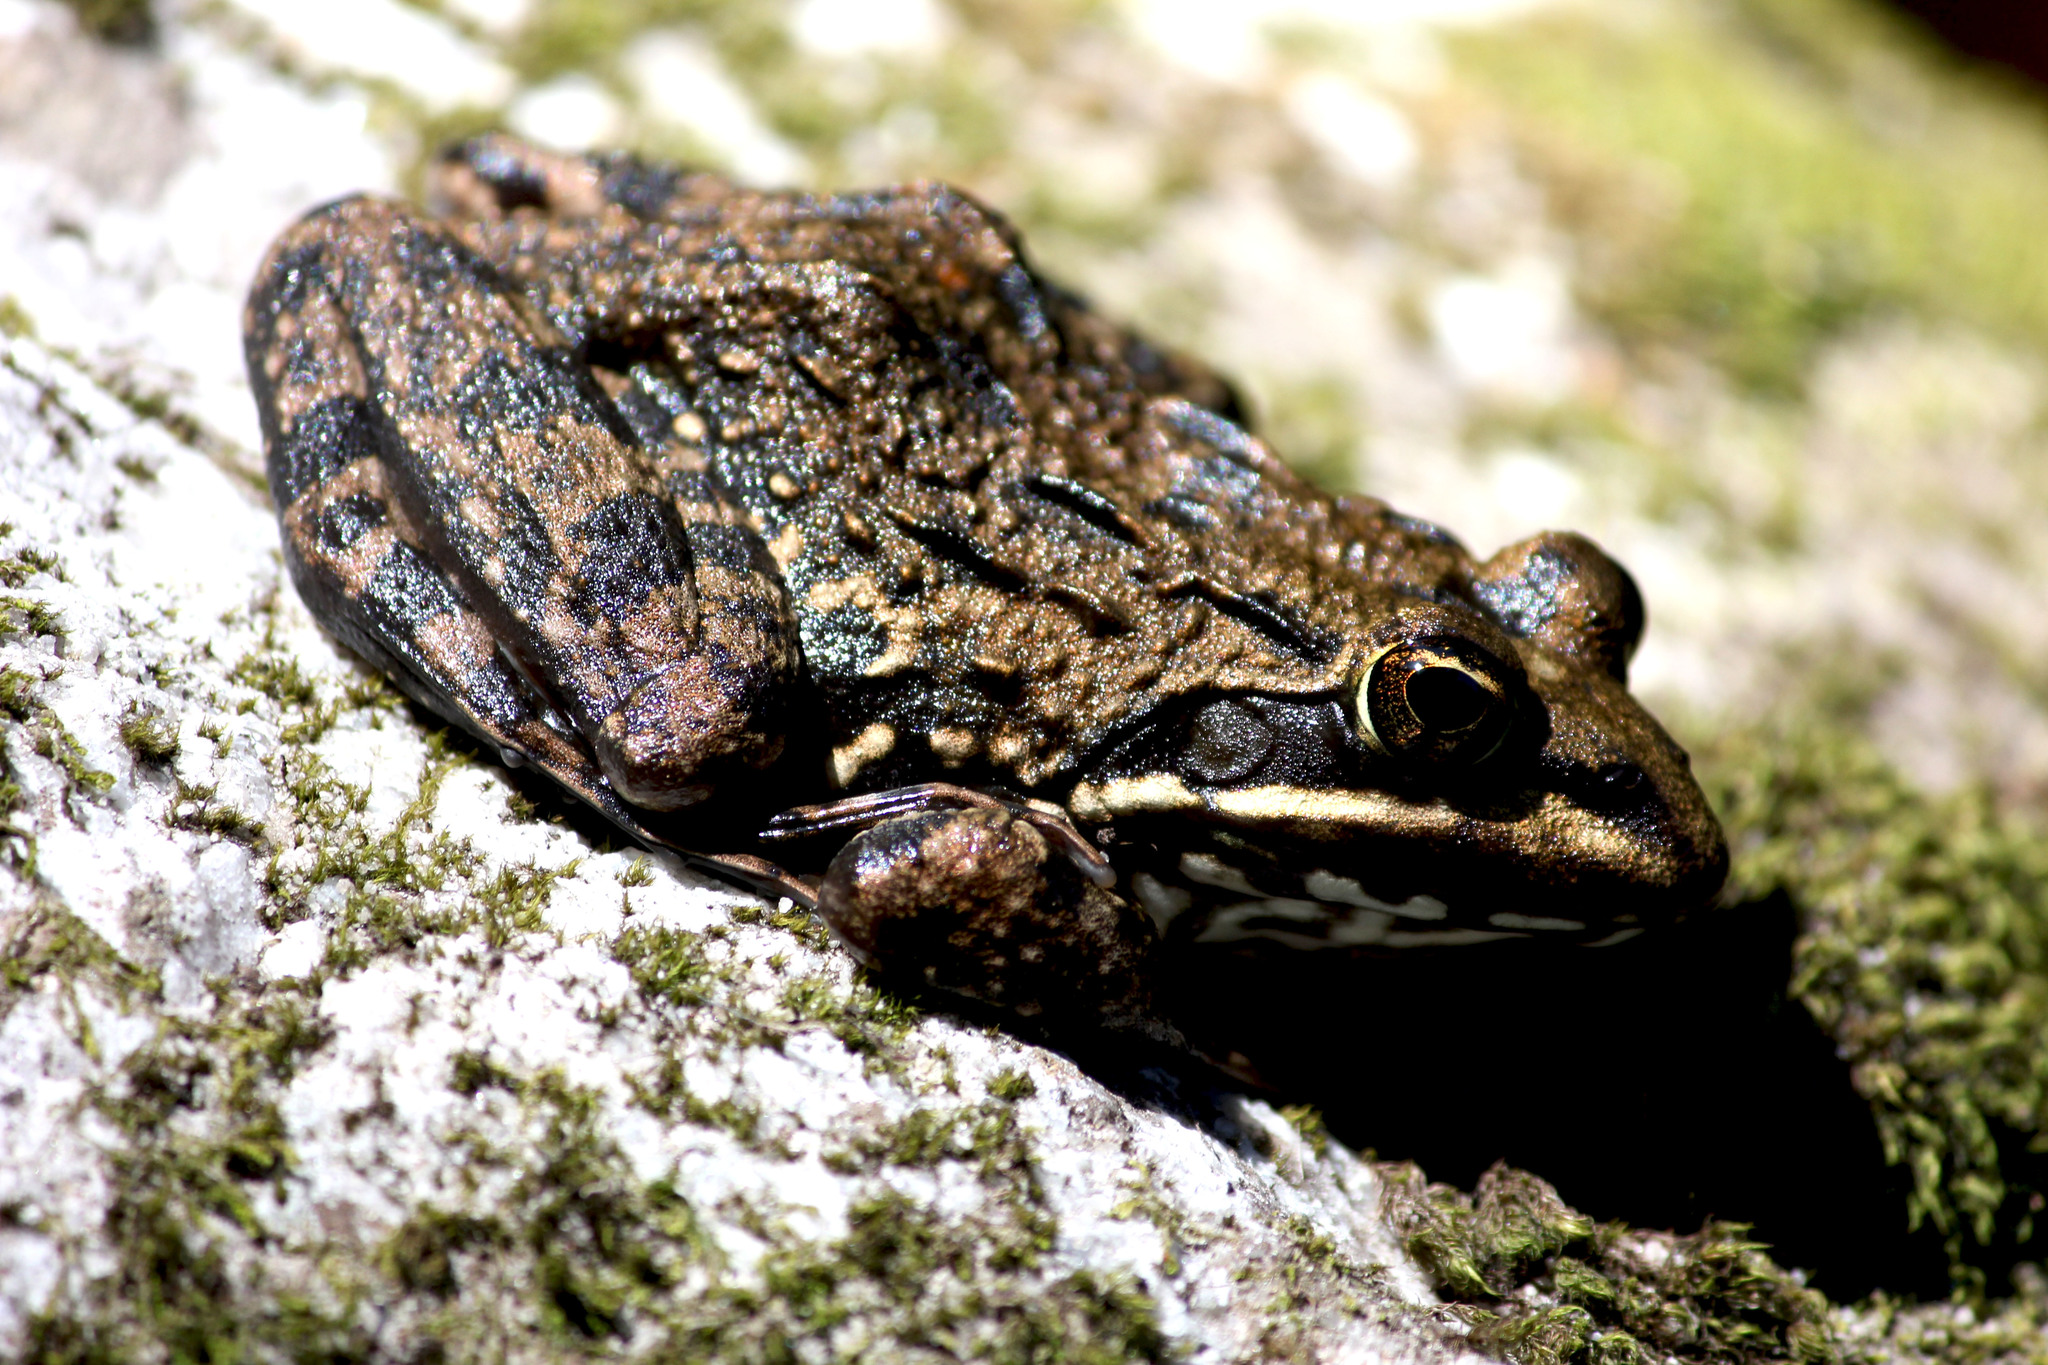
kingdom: Animalia
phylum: Chordata
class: Amphibia
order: Anura
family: Pyxicephalidae
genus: Amietia
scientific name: Amietia fuscigula
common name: Cape rana
